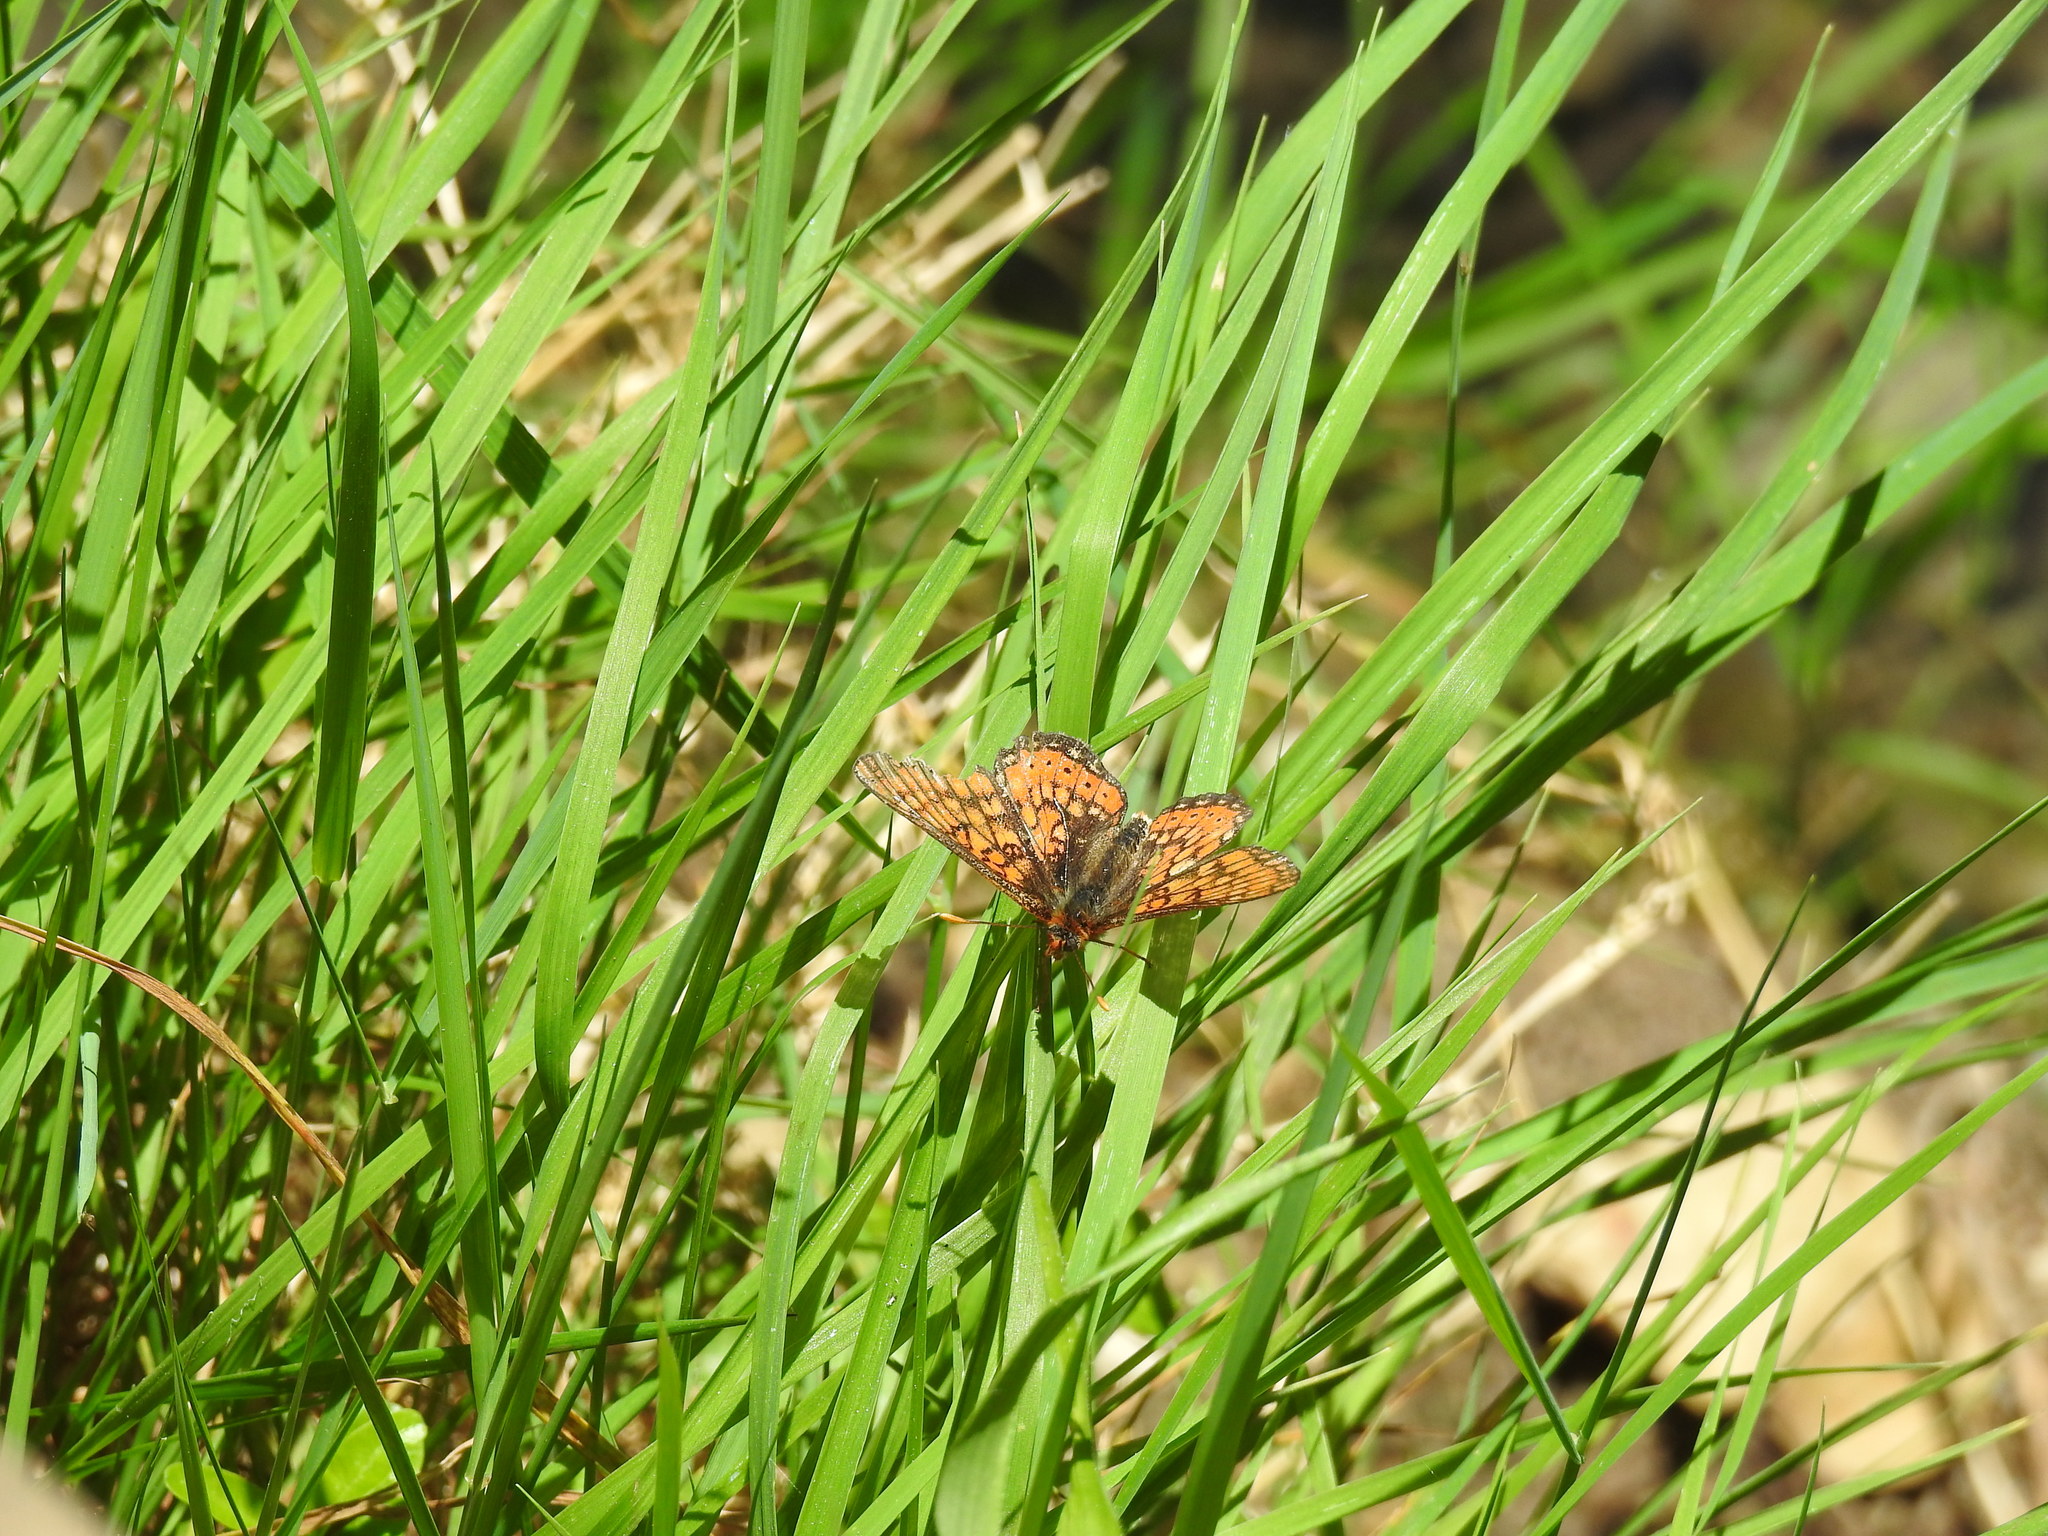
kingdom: Animalia
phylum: Arthropoda
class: Insecta
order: Lepidoptera
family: Nymphalidae
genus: Euphydryas
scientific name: Euphydryas aurinia
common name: Marsh fritillary
